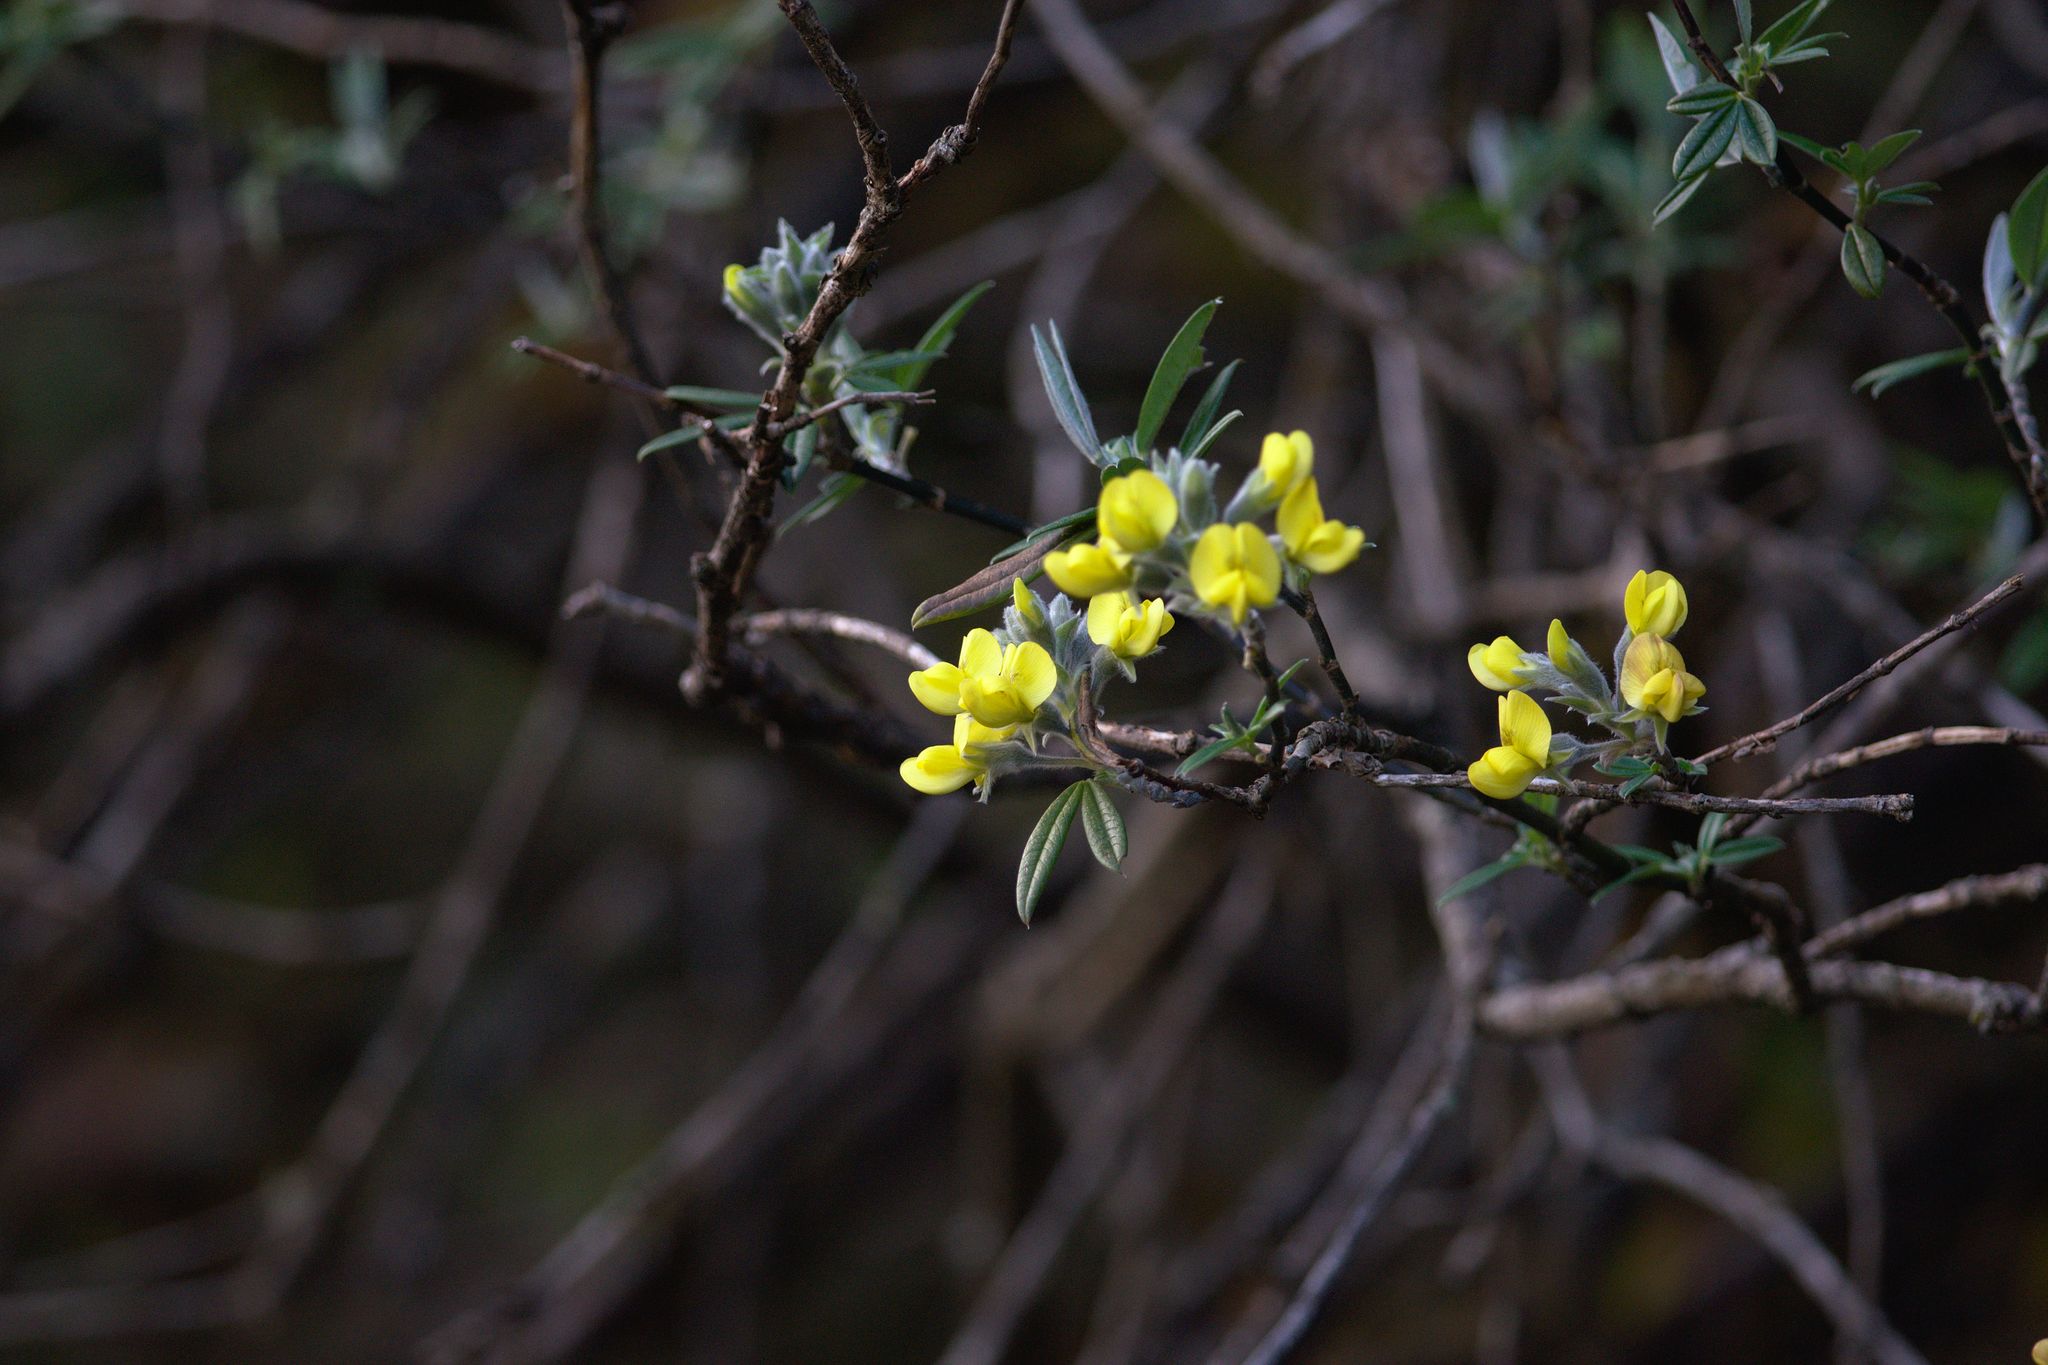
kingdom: Plantae
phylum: Tracheophyta
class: Magnoliopsida
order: Fabales
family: Fabaceae
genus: Piptanthus
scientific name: Piptanthus nepalensis
